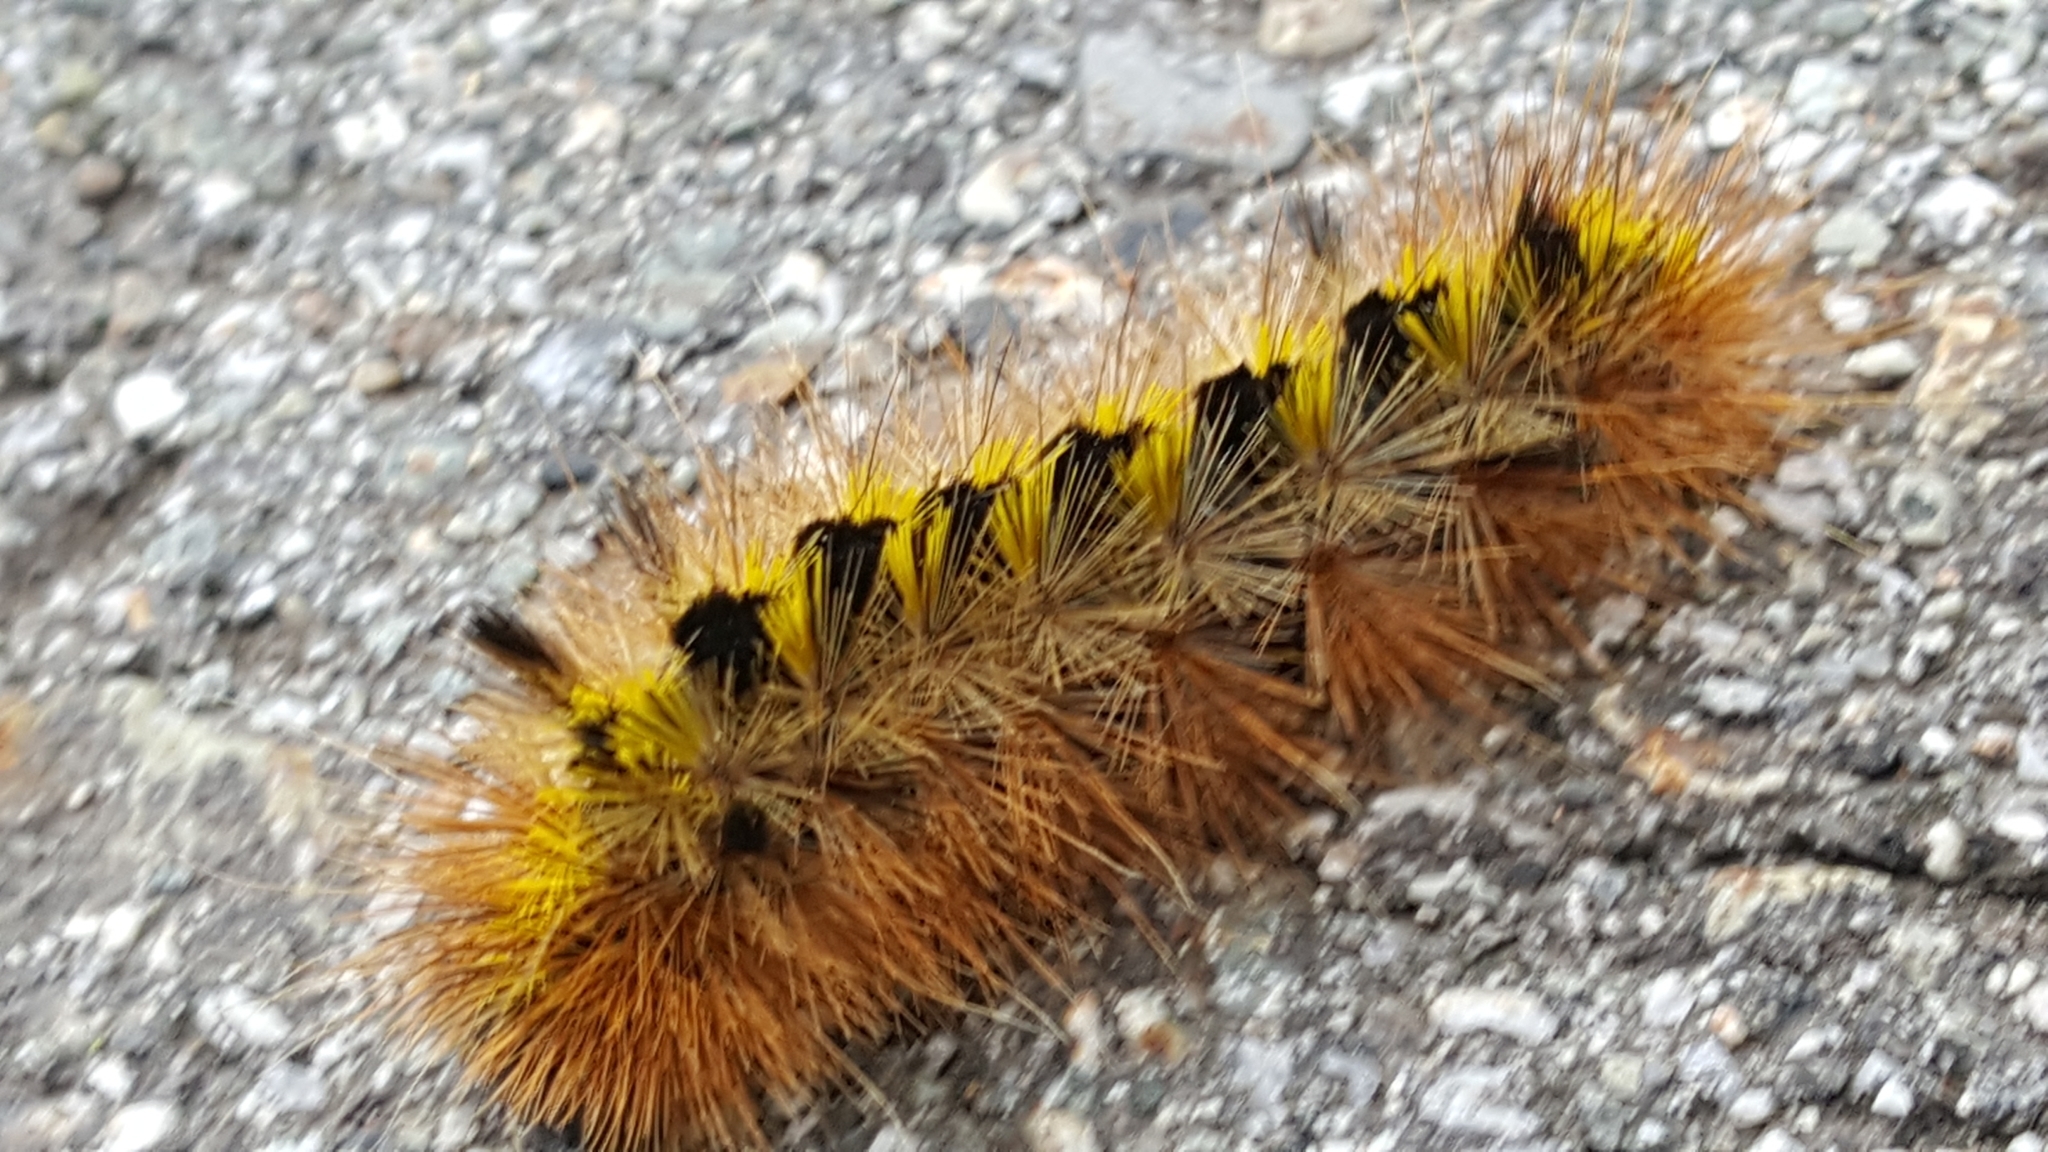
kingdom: Animalia
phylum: Arthropoda
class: Insecta
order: Lepidoptera
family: Erebidae
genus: Lophocampa
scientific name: Lophocampa argentata
